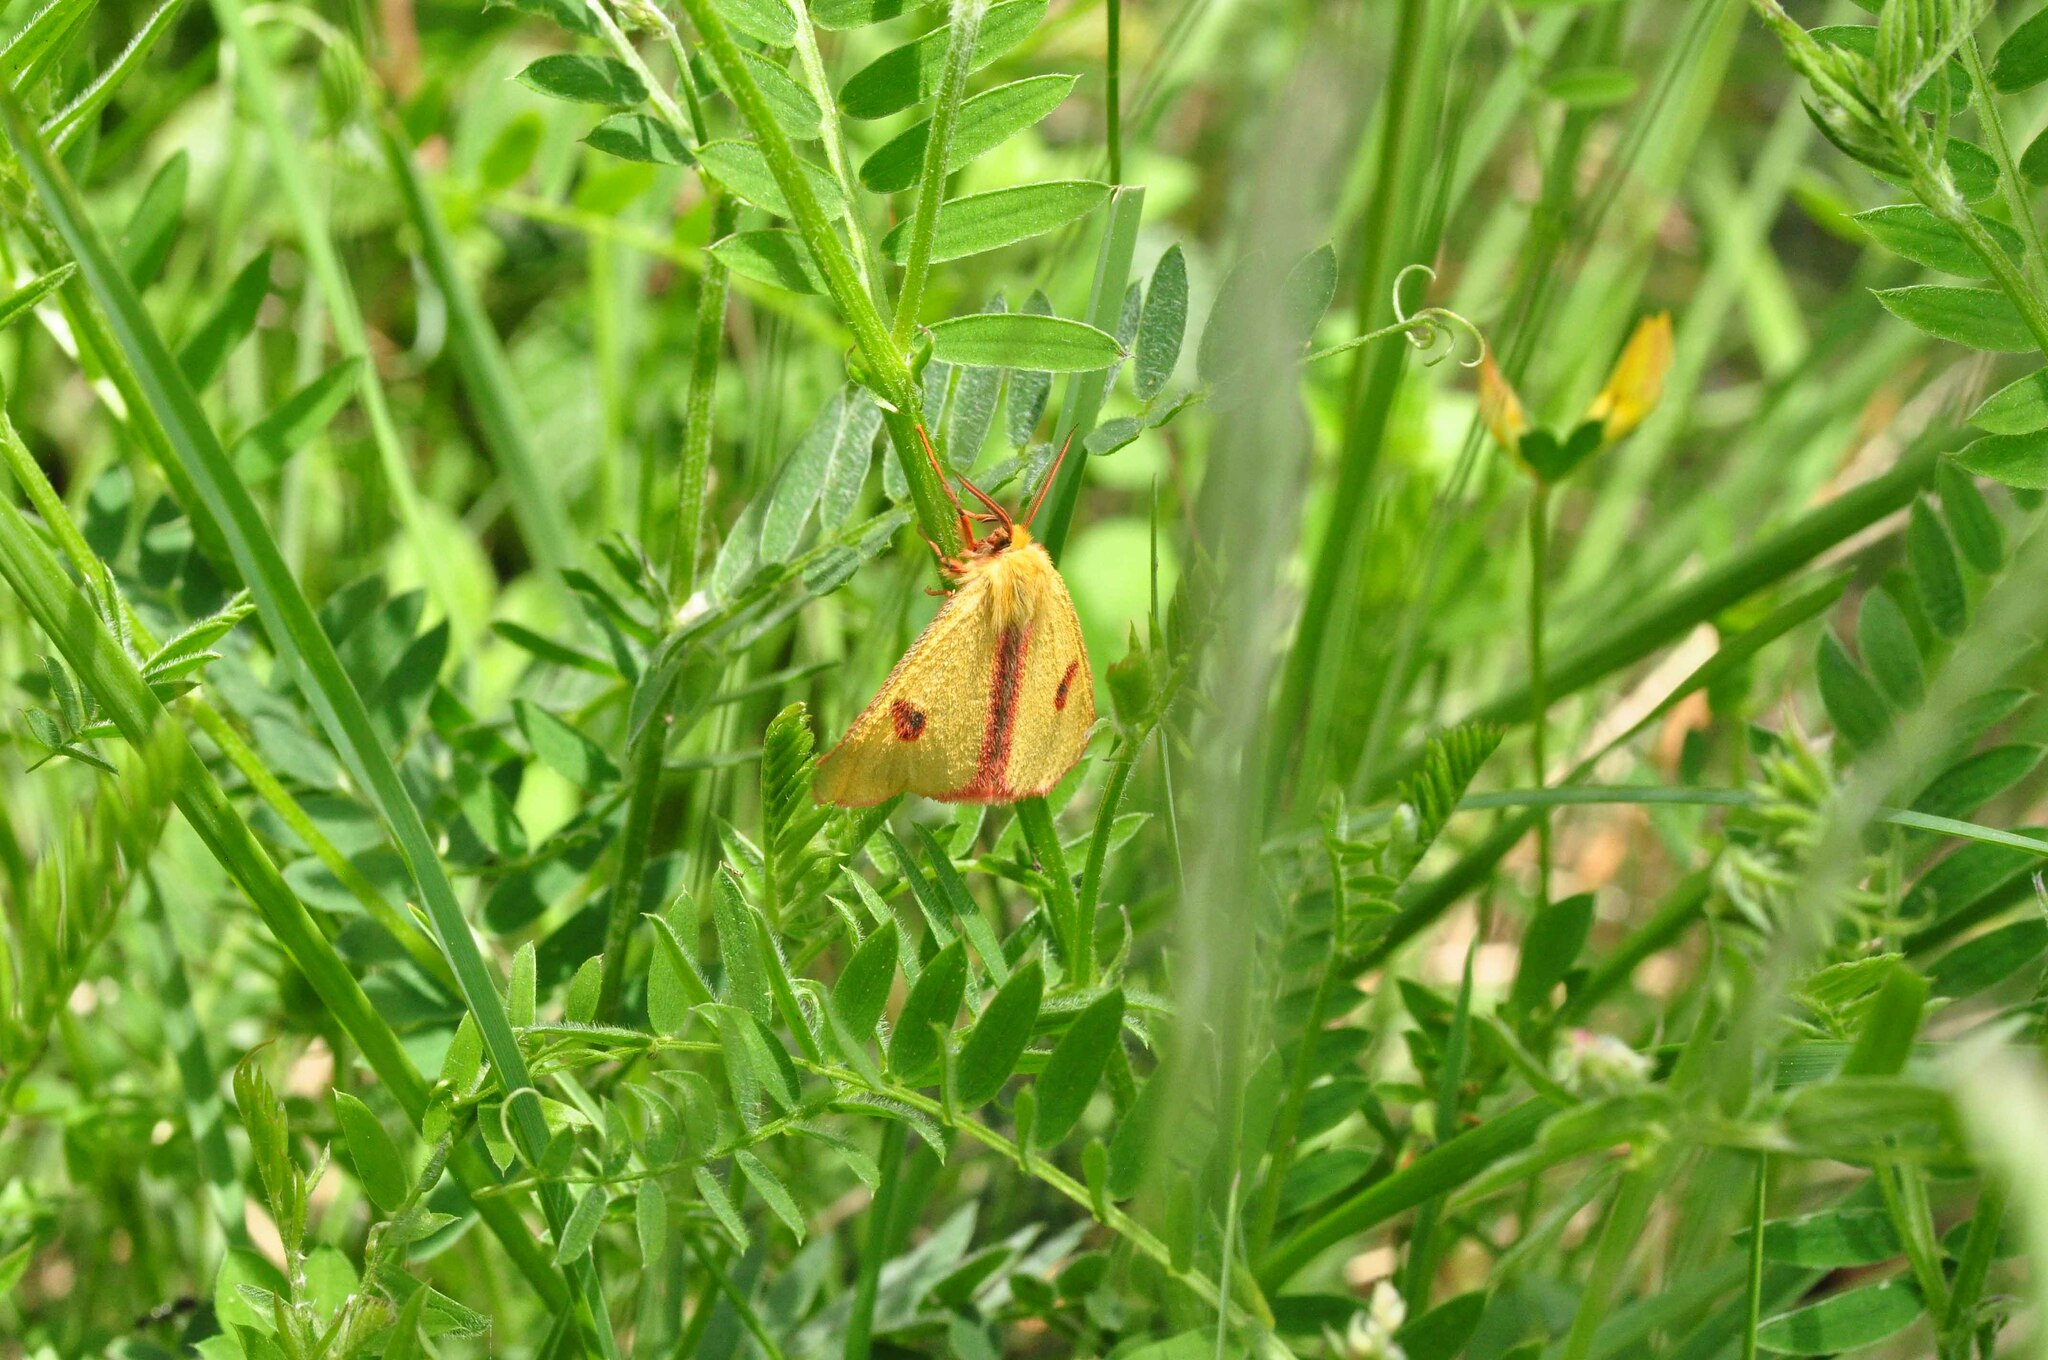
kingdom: Animalia
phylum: Arthropoda
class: Insecta
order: Lepidoptera
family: Erebidae
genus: Diacrisia
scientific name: Diacrisia sannio
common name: Clouded buff
